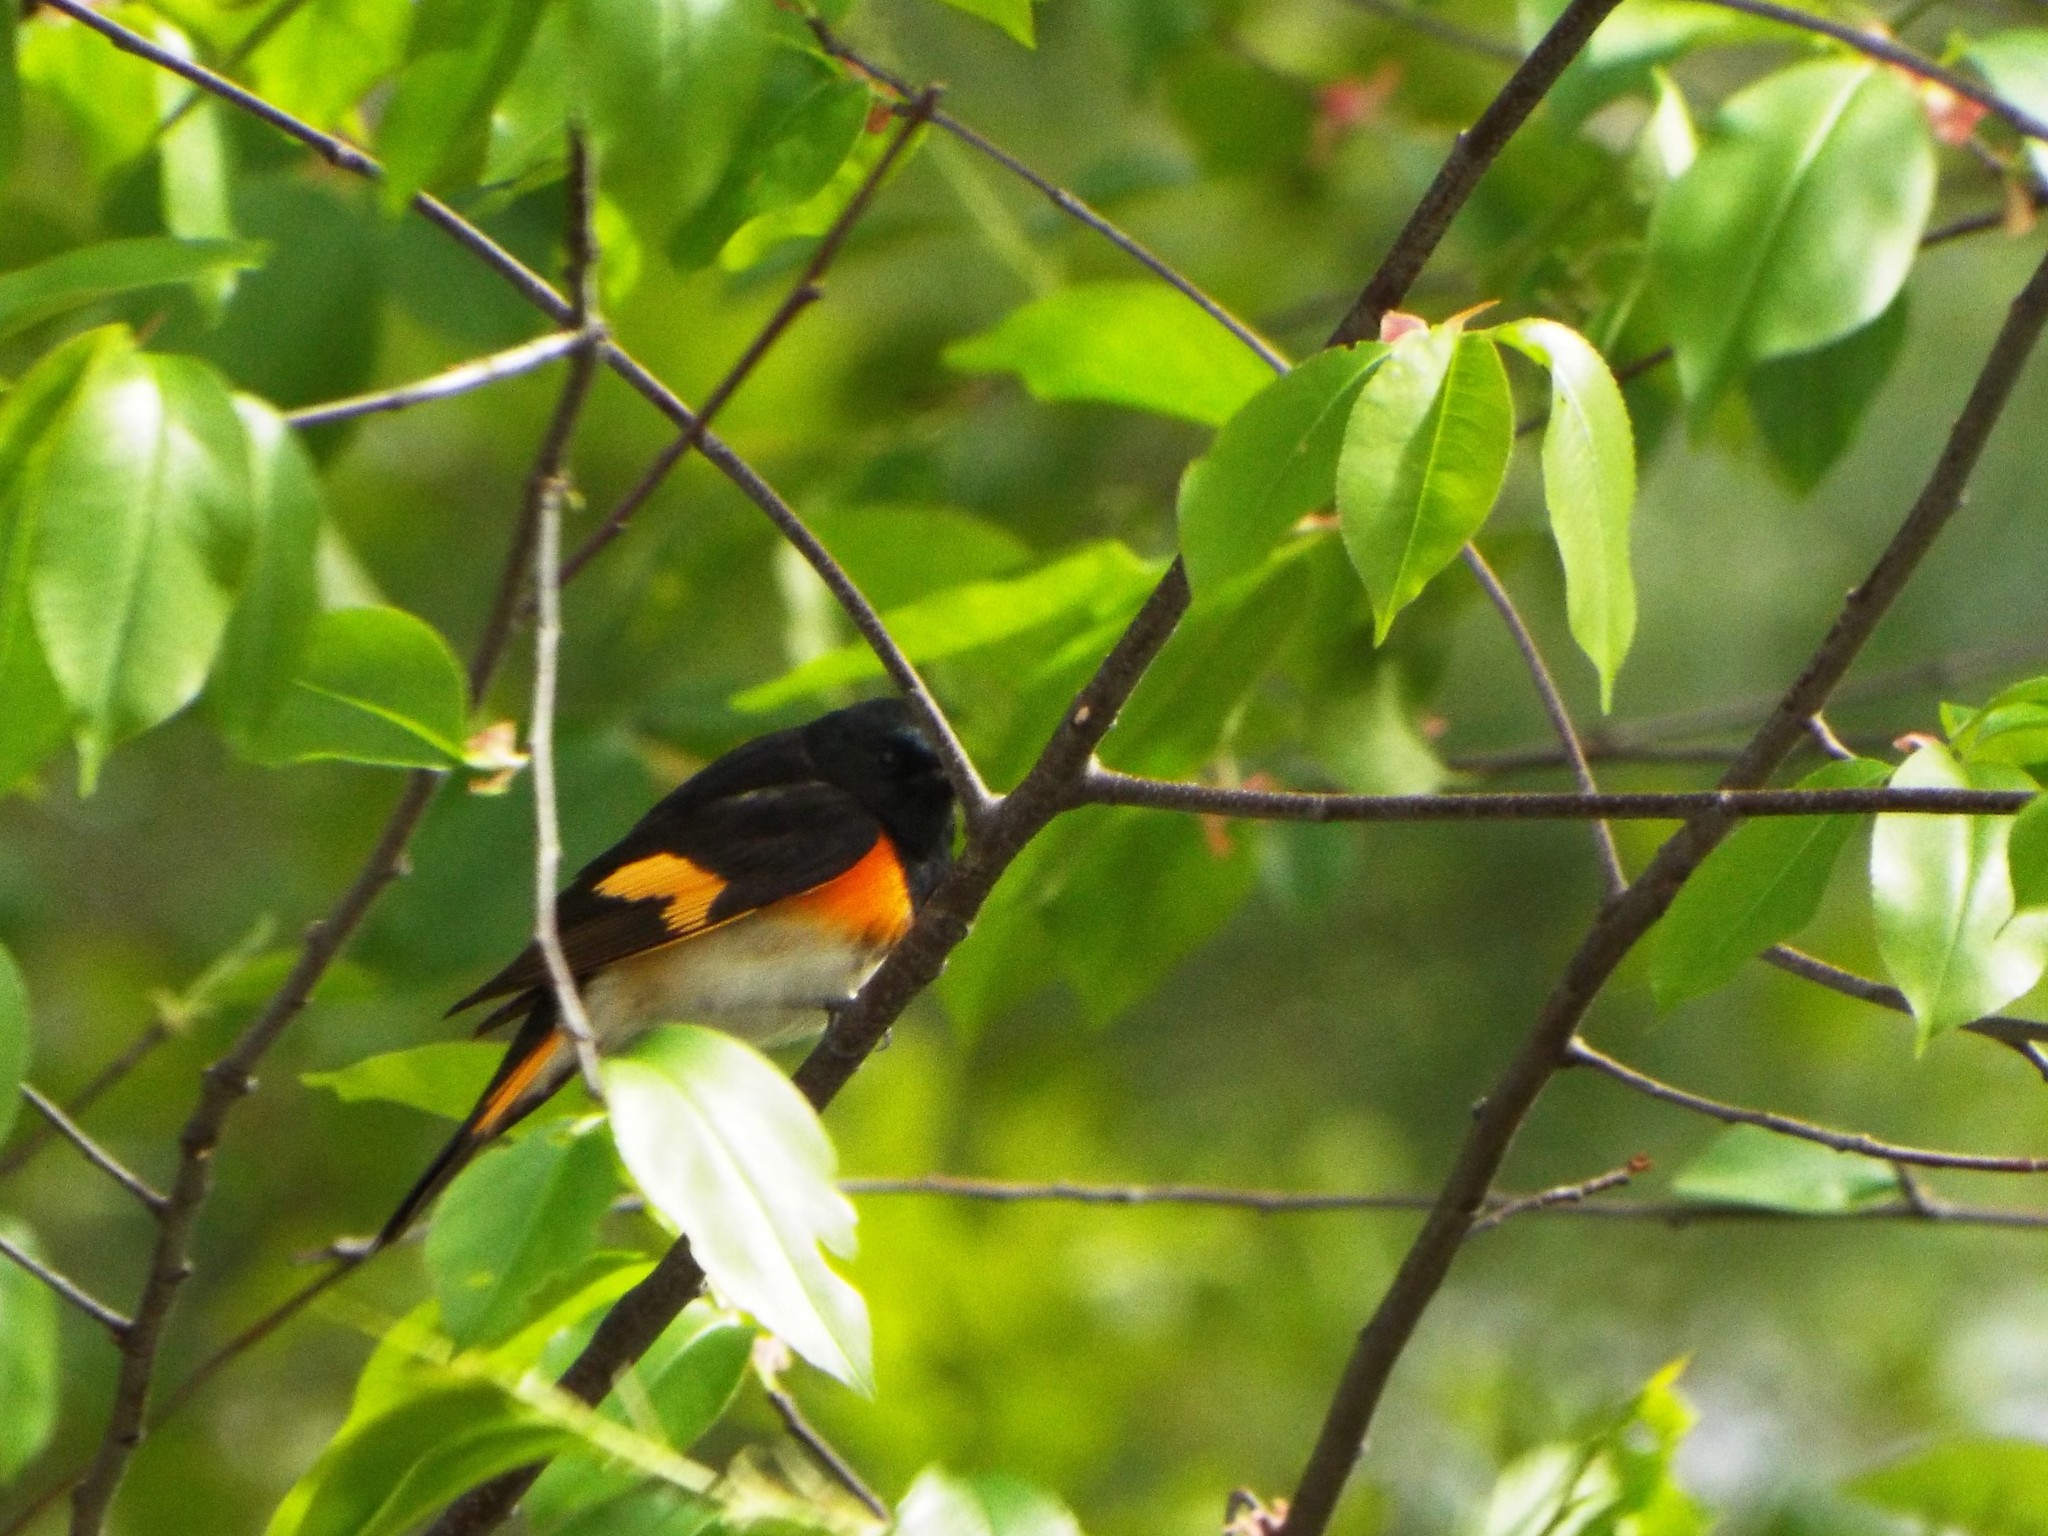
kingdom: Animalia
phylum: Chordata
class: Aves
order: Passeriformes
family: Parulidae
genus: Setophaga
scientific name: Setophaga ruticilla
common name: American redstart
